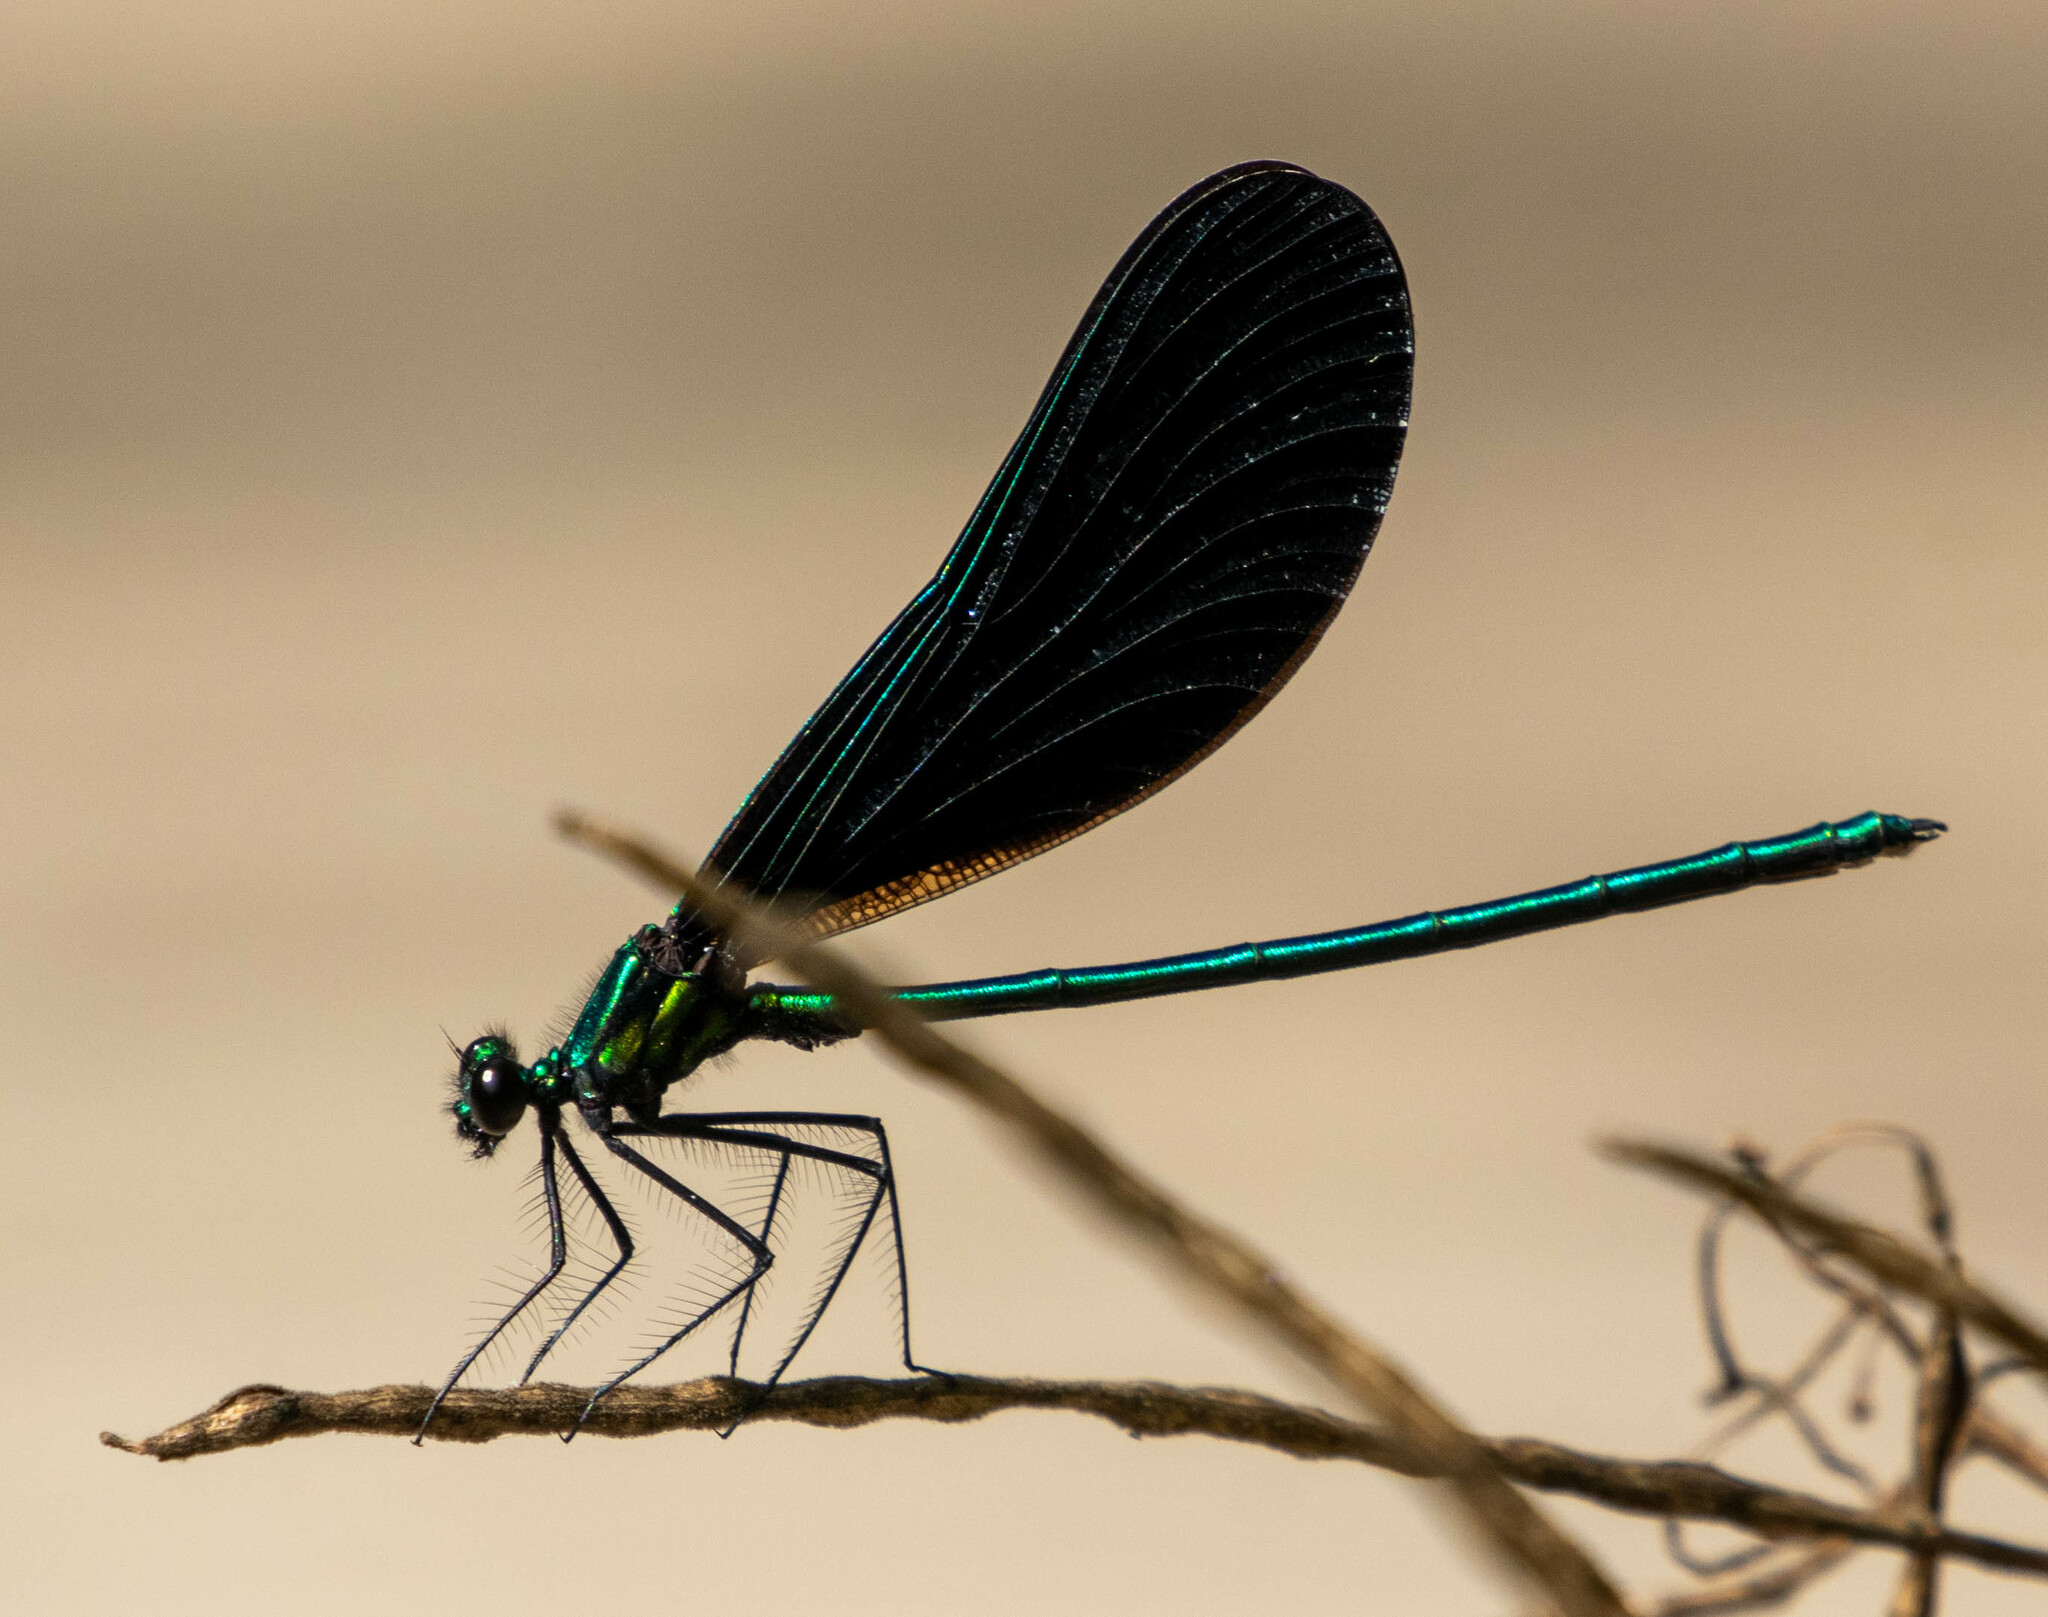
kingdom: Animalia
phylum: Arthropoda
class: Insecta
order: Odonata
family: Calopterygidae
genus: Calopteryx
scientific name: Calopteryx maculata
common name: Ebony jewelwing
